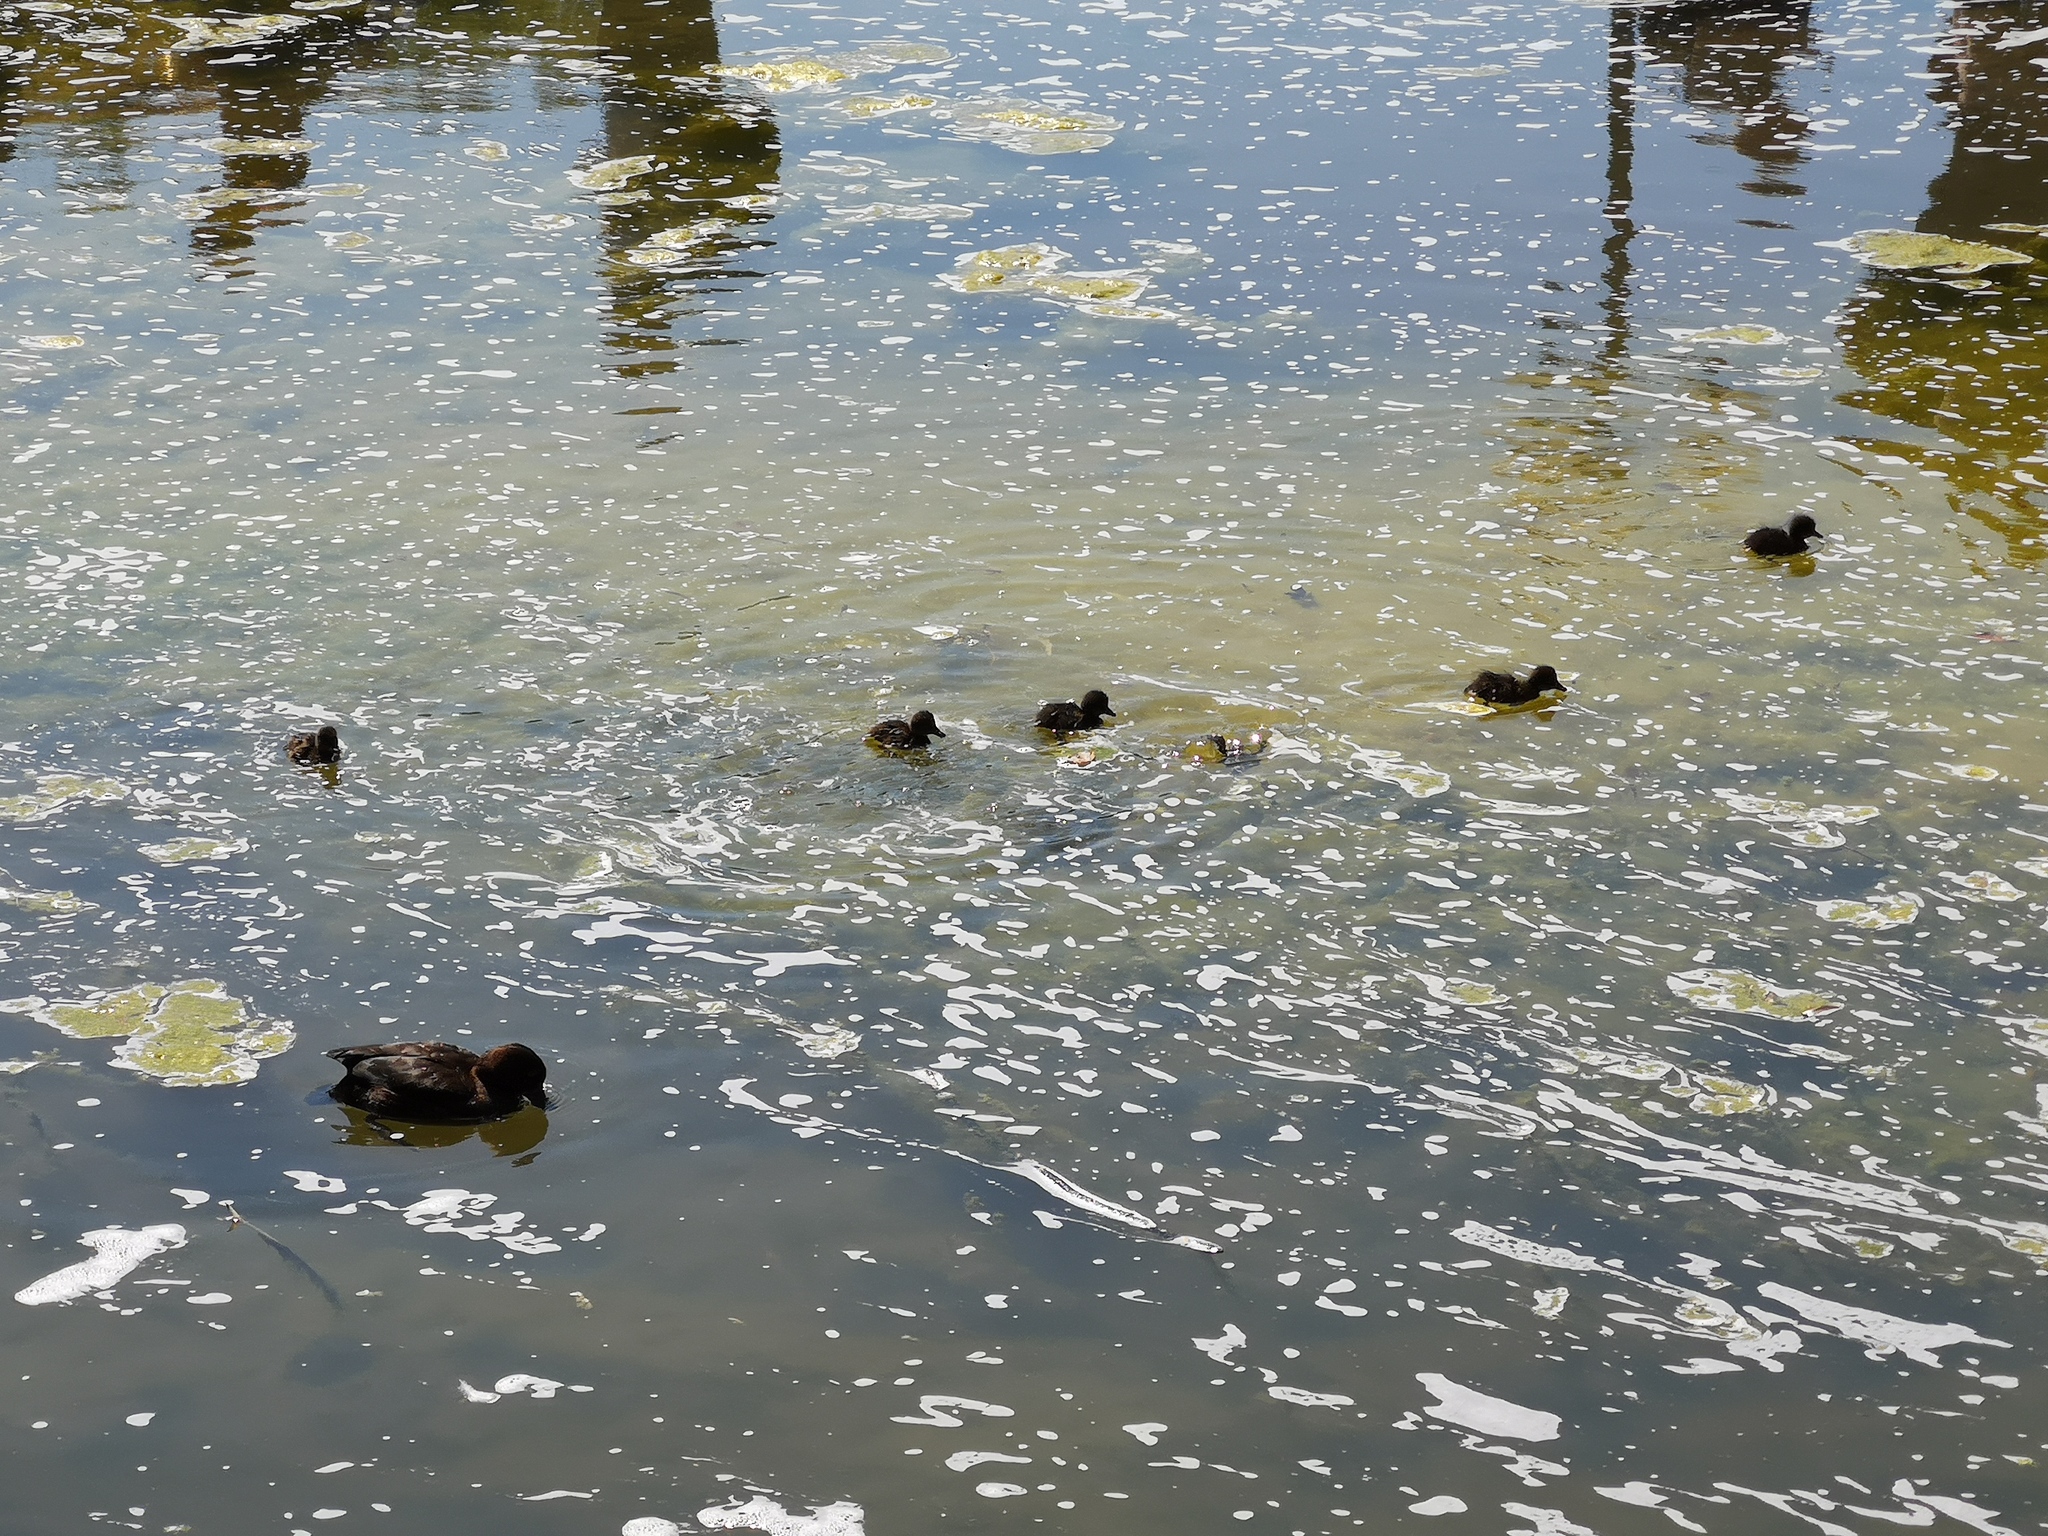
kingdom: Animalia
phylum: Chordata
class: Aves
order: Anseriformes
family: Anatidae
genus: Aythya
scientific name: Aythya fuligula
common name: Tufted duck
